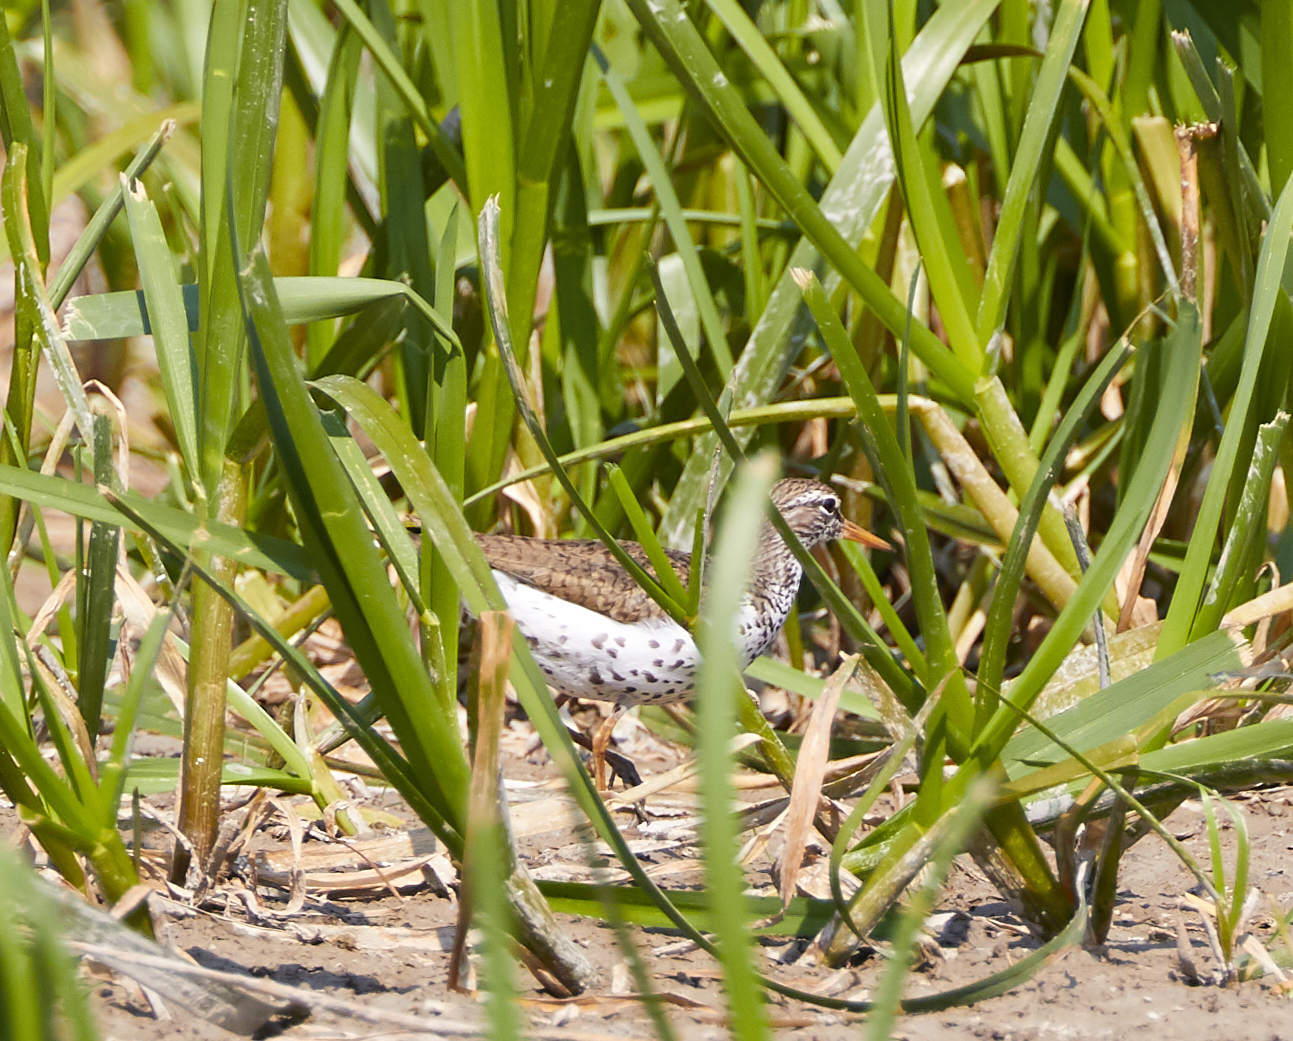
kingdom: Animalia
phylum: Chordata
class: Aves
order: Charadriiformes
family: Scolopacidae
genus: Actitis
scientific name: Actitis macularius
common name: Spotted sandpiper
